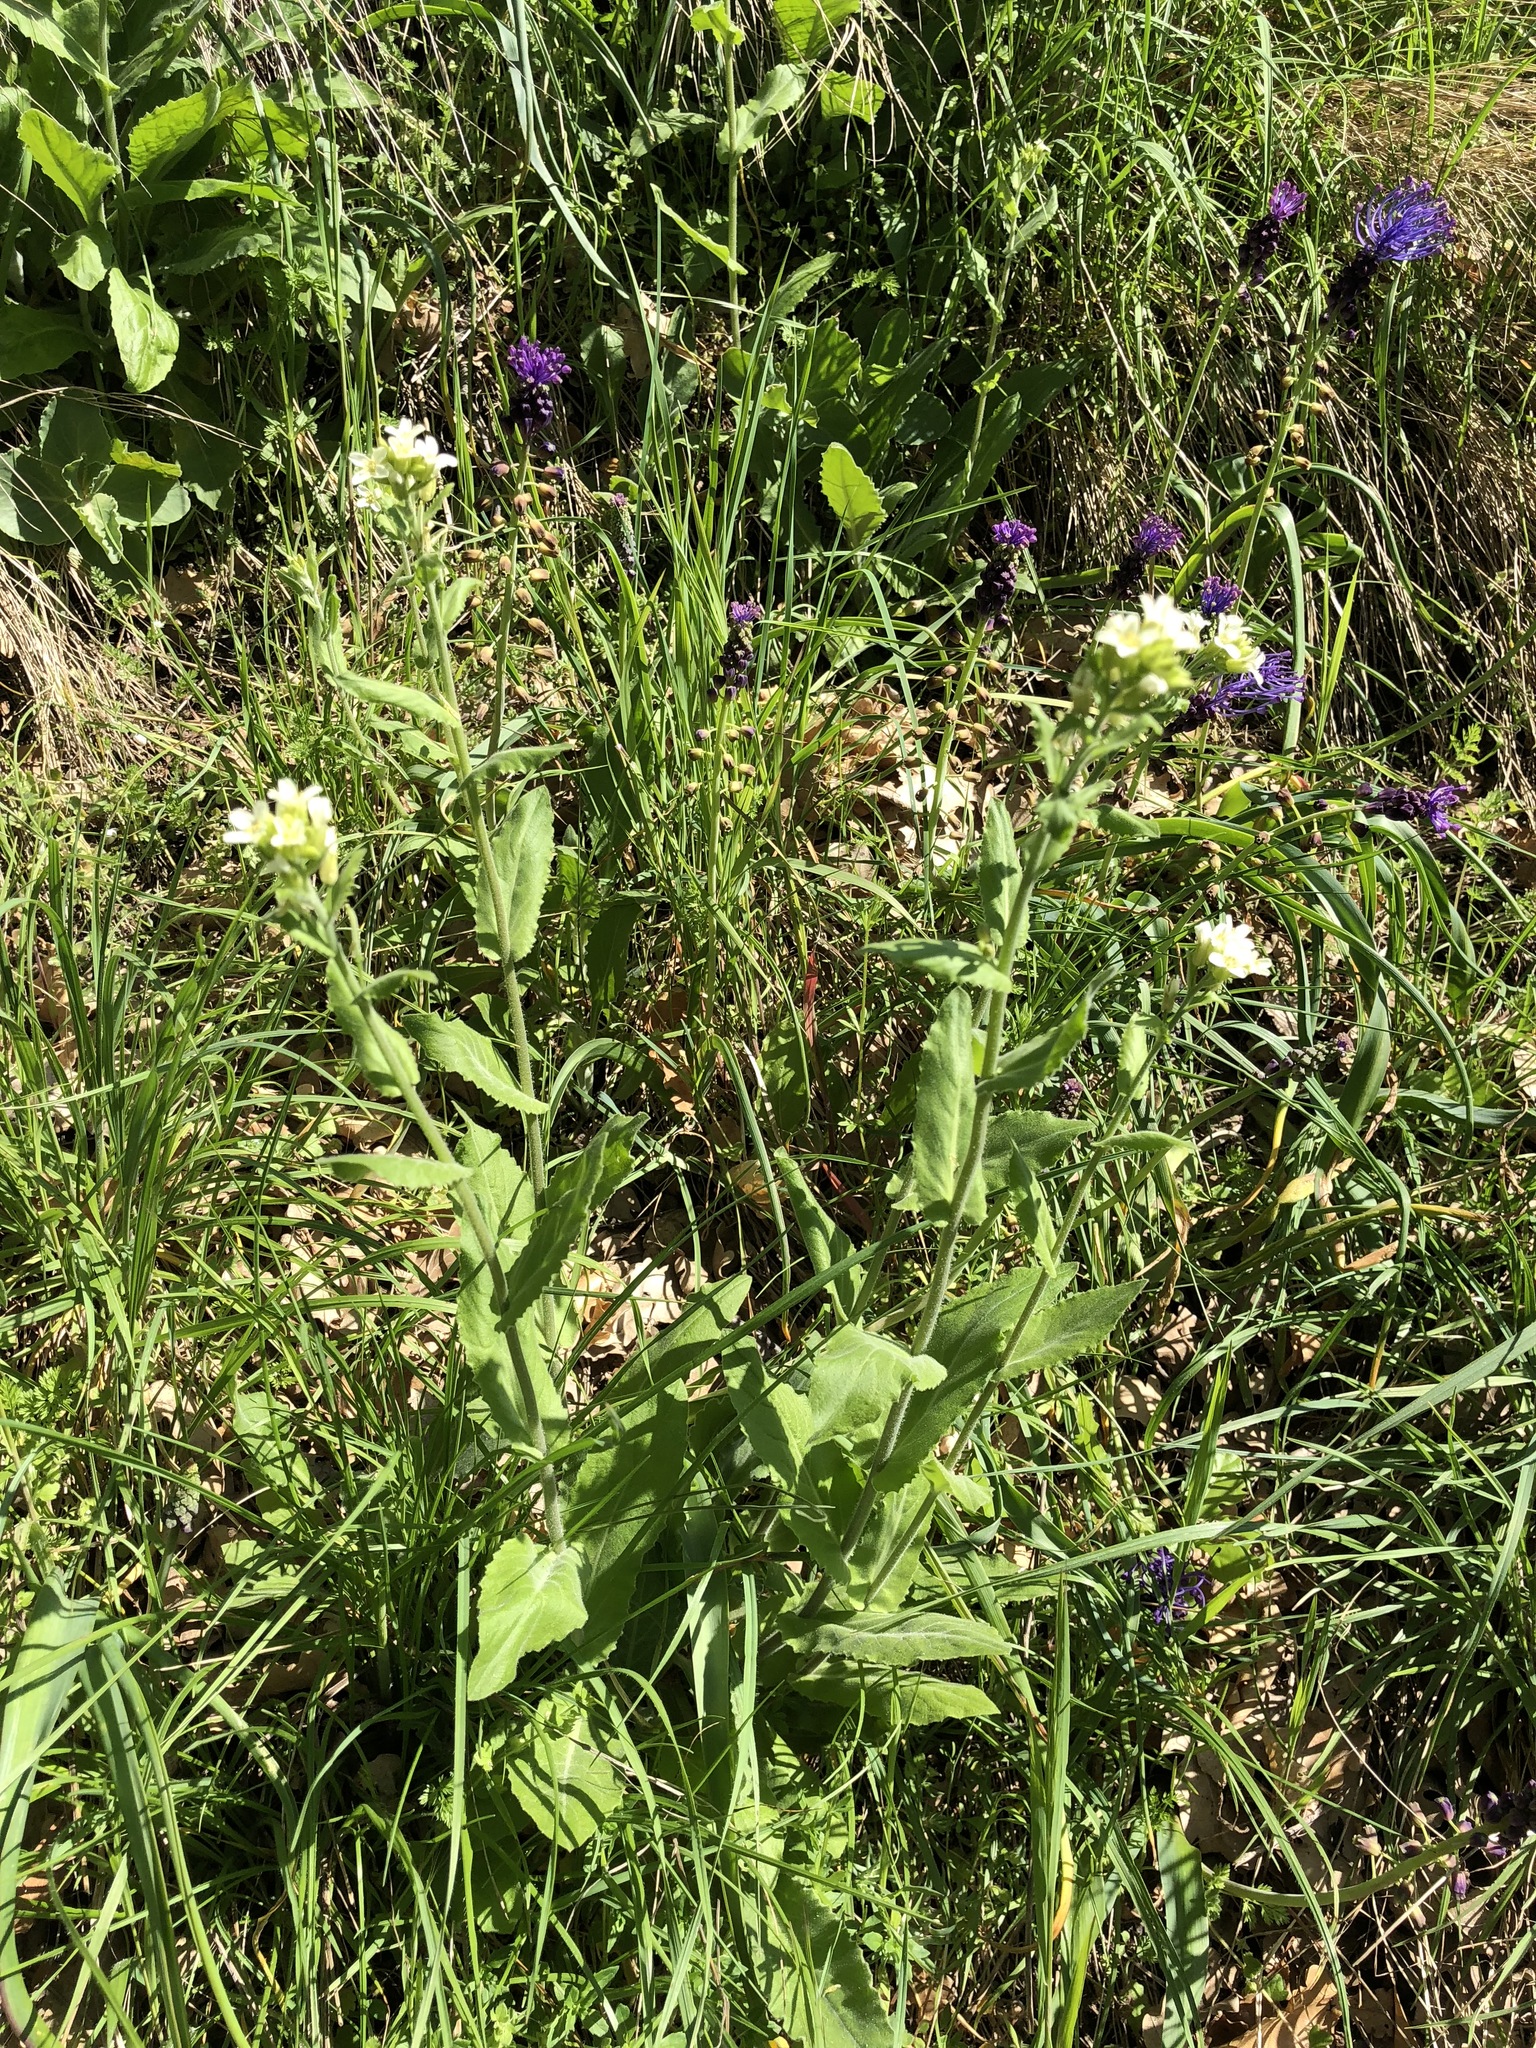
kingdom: Plantae
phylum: Tracheophyta
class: Magnoliopsida
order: Brassicales
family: Brassicaceae
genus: Pseudoturritis
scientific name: Pseudoturritis turrita
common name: Tower cress
